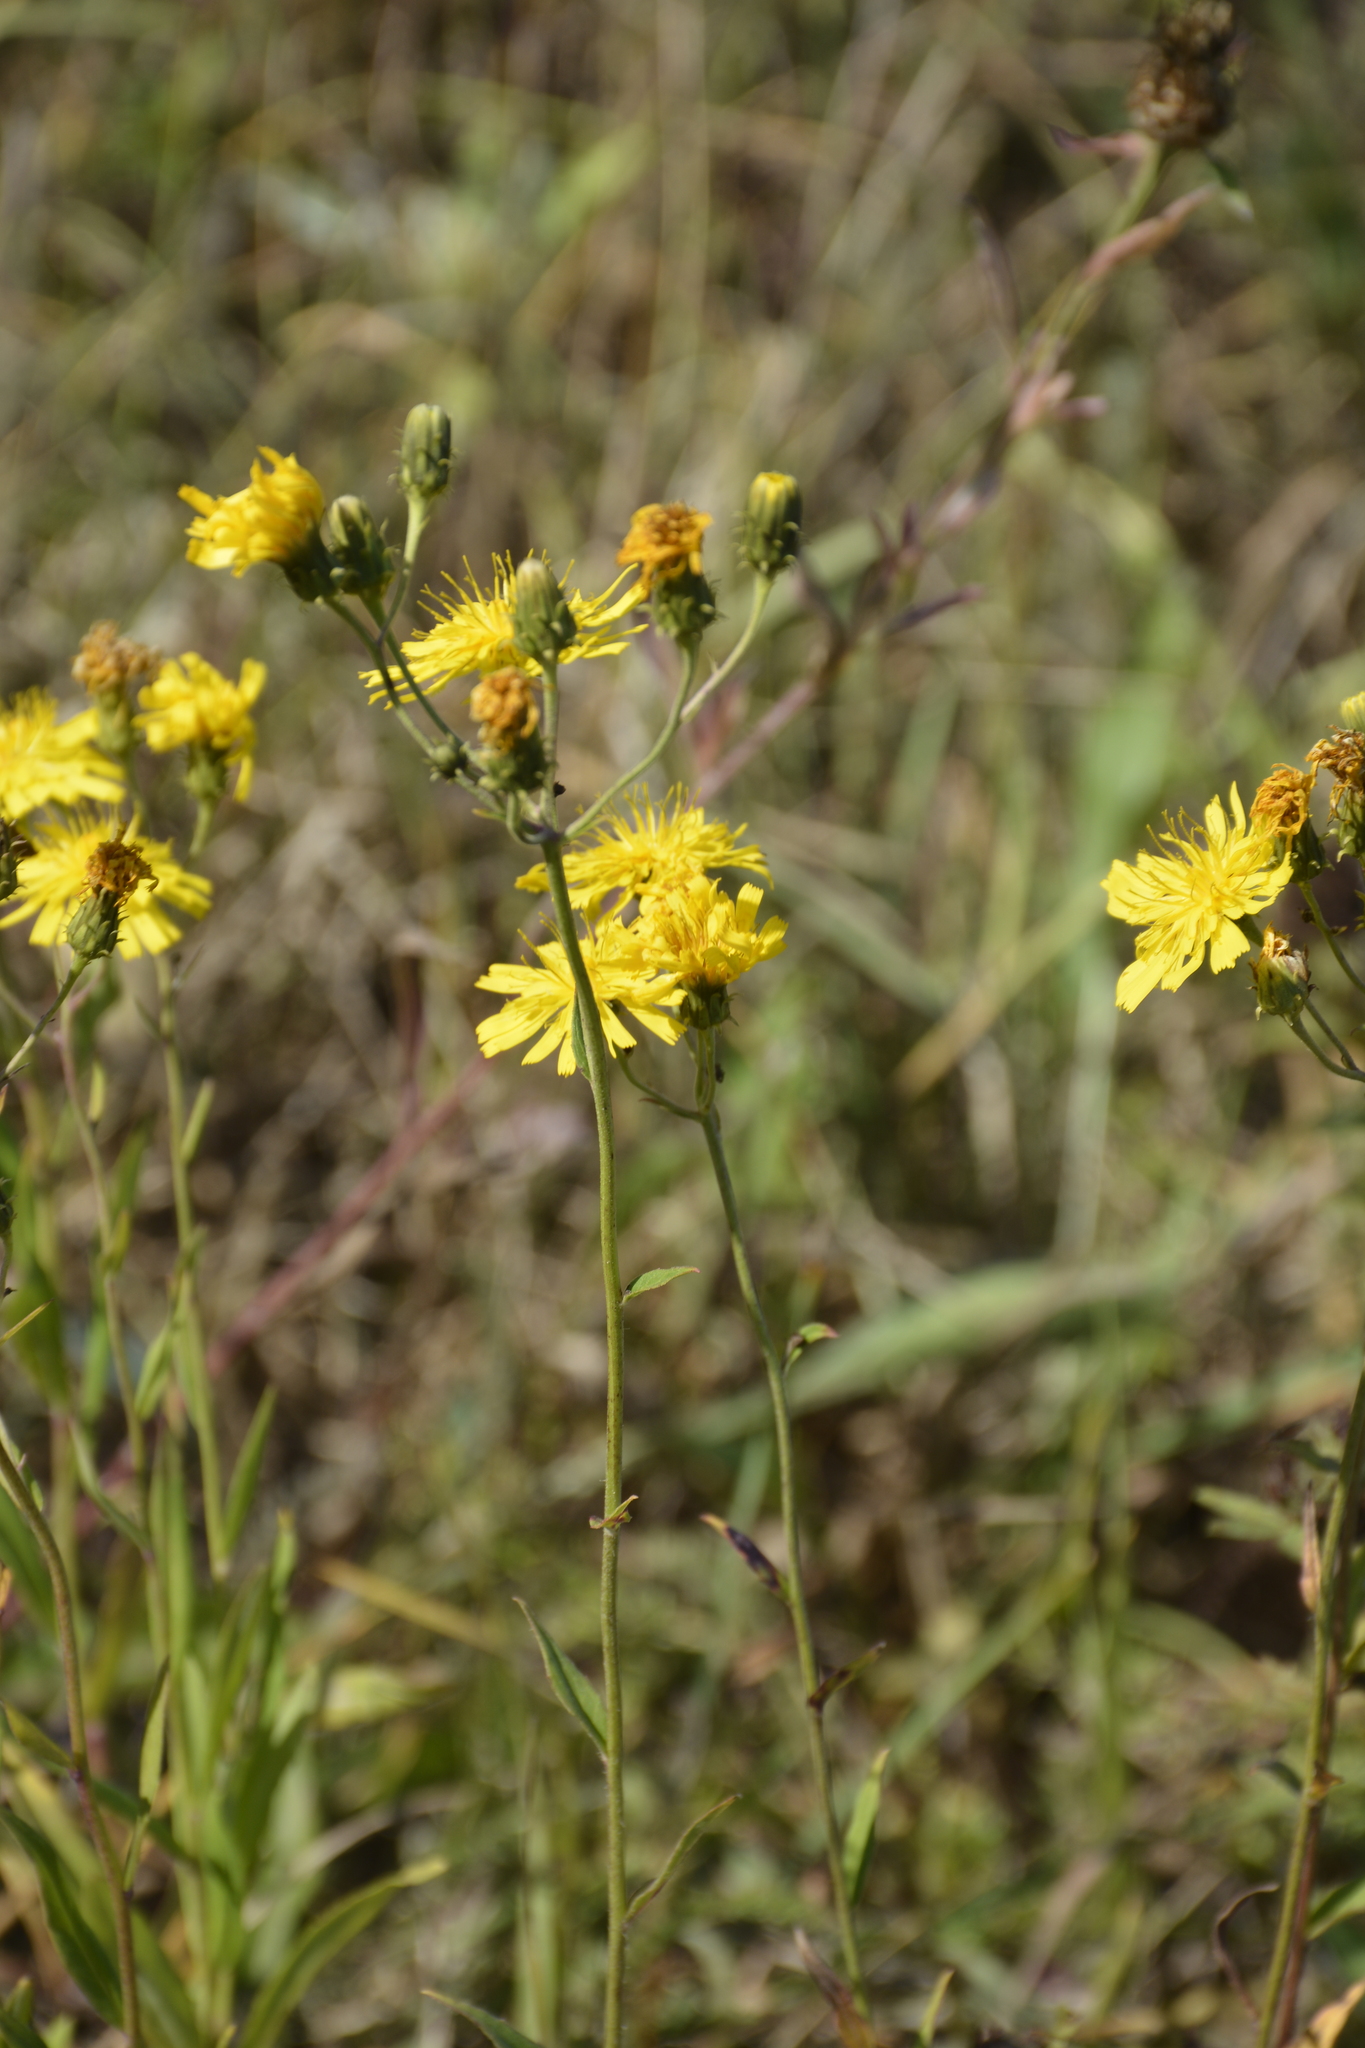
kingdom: Plantae
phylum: Tracheophyta
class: Magnoliopsida
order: Asterales
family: Asteraceae
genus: Hieracium
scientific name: Hieracium umbellatum
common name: Northern hawkweed
